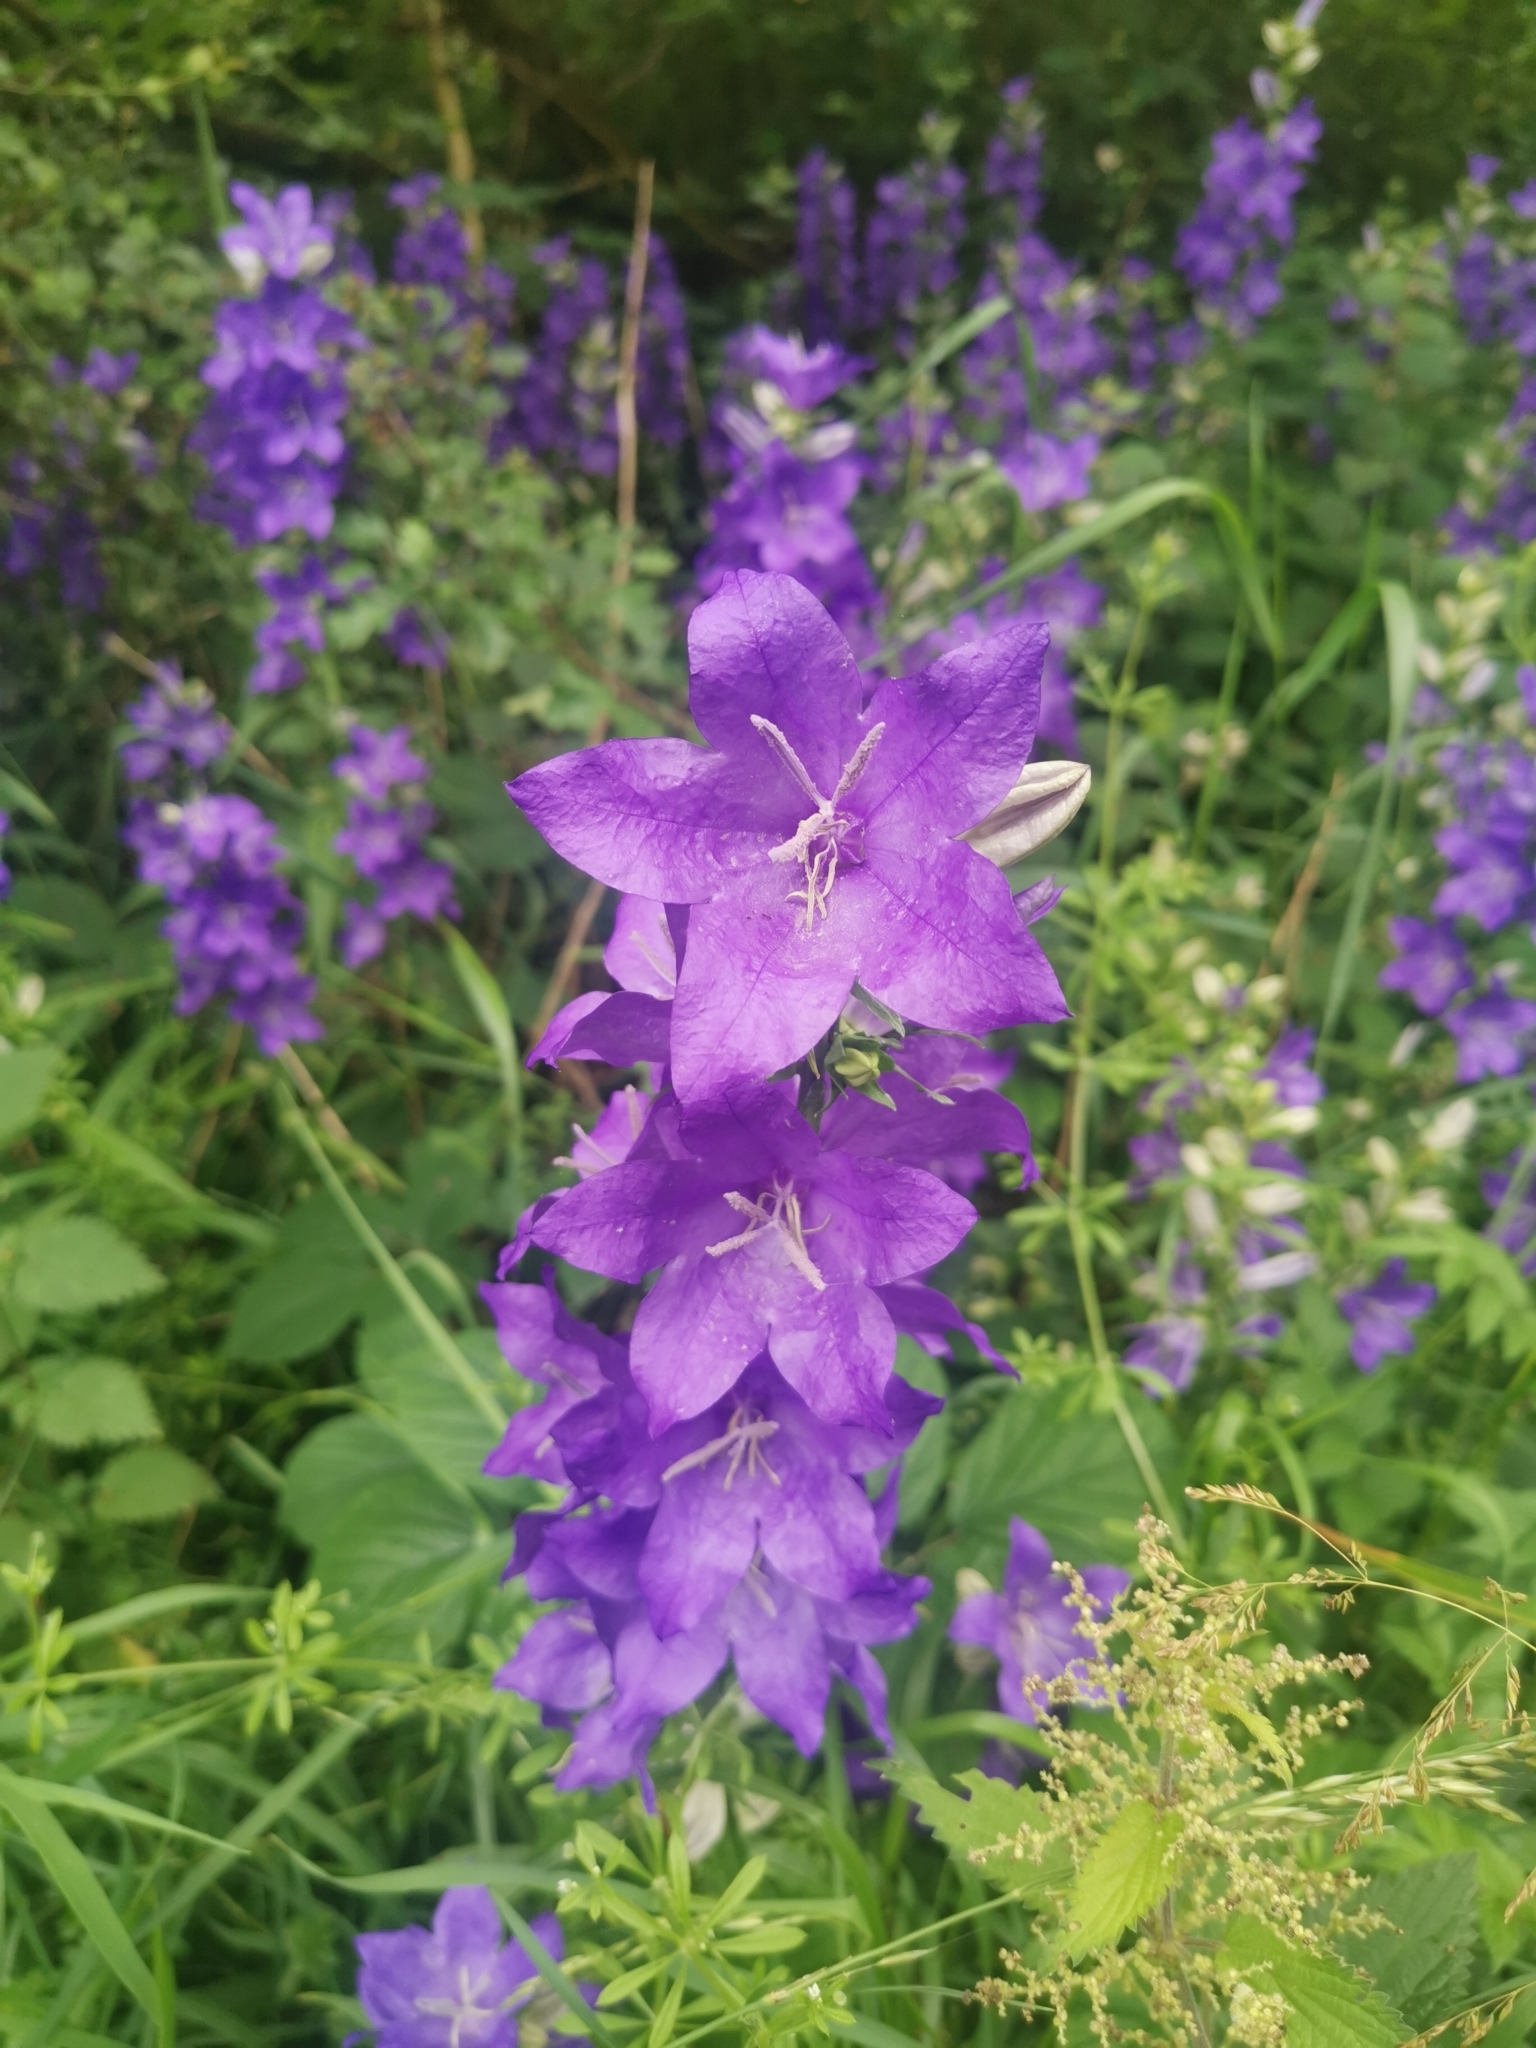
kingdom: Plantae
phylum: Tracheophyta
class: Magnoliopsida
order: Asterales
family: Campanulaceae
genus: Campanula
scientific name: Campanula persicifolia
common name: Peach-leaved bellflower
